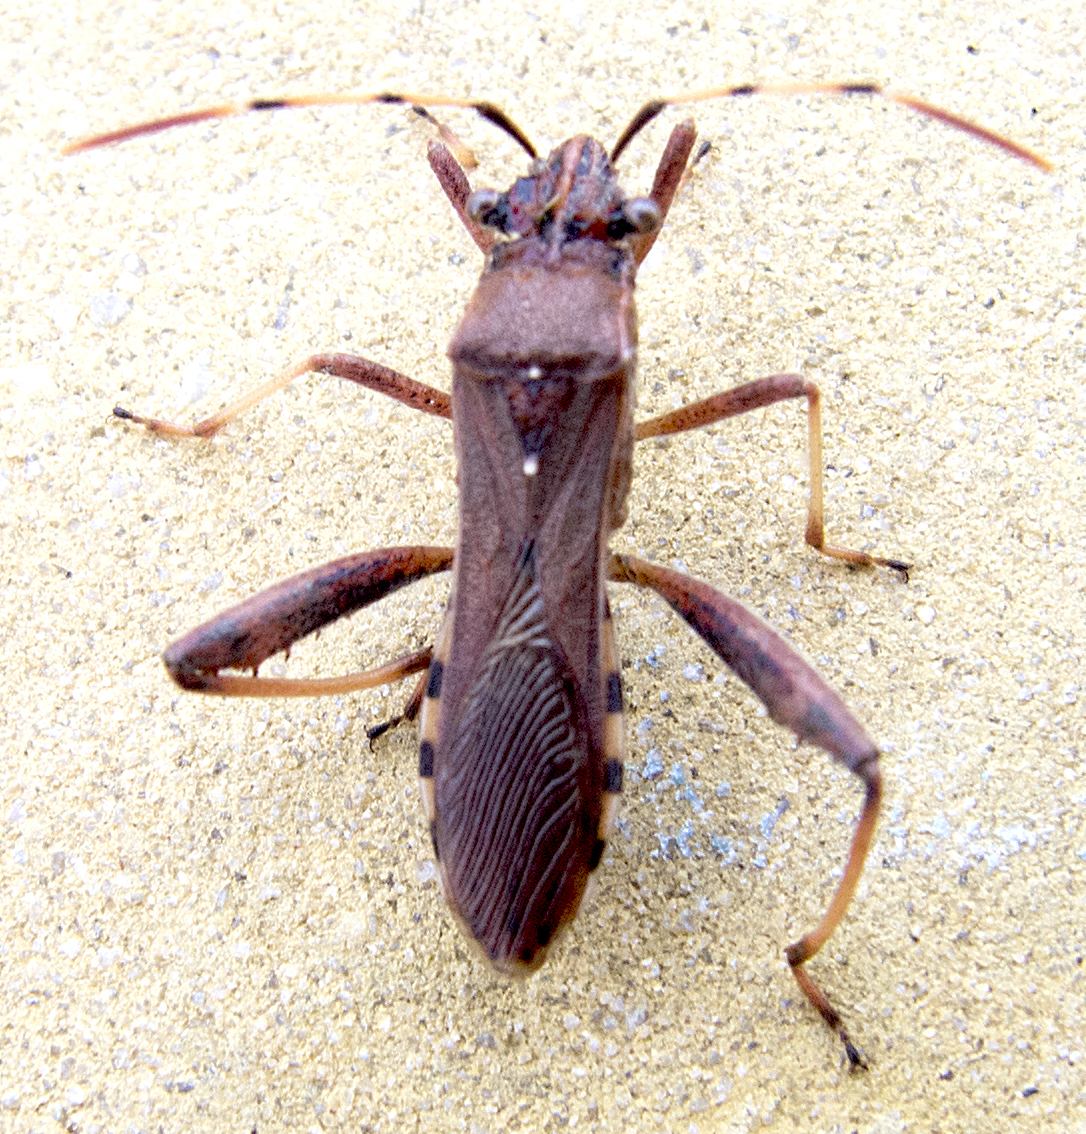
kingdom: Animalia
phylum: Arthropoda
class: Insecta
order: Hemiptera
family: Alydidae
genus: Camptopus
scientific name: Camptopus lateralis
